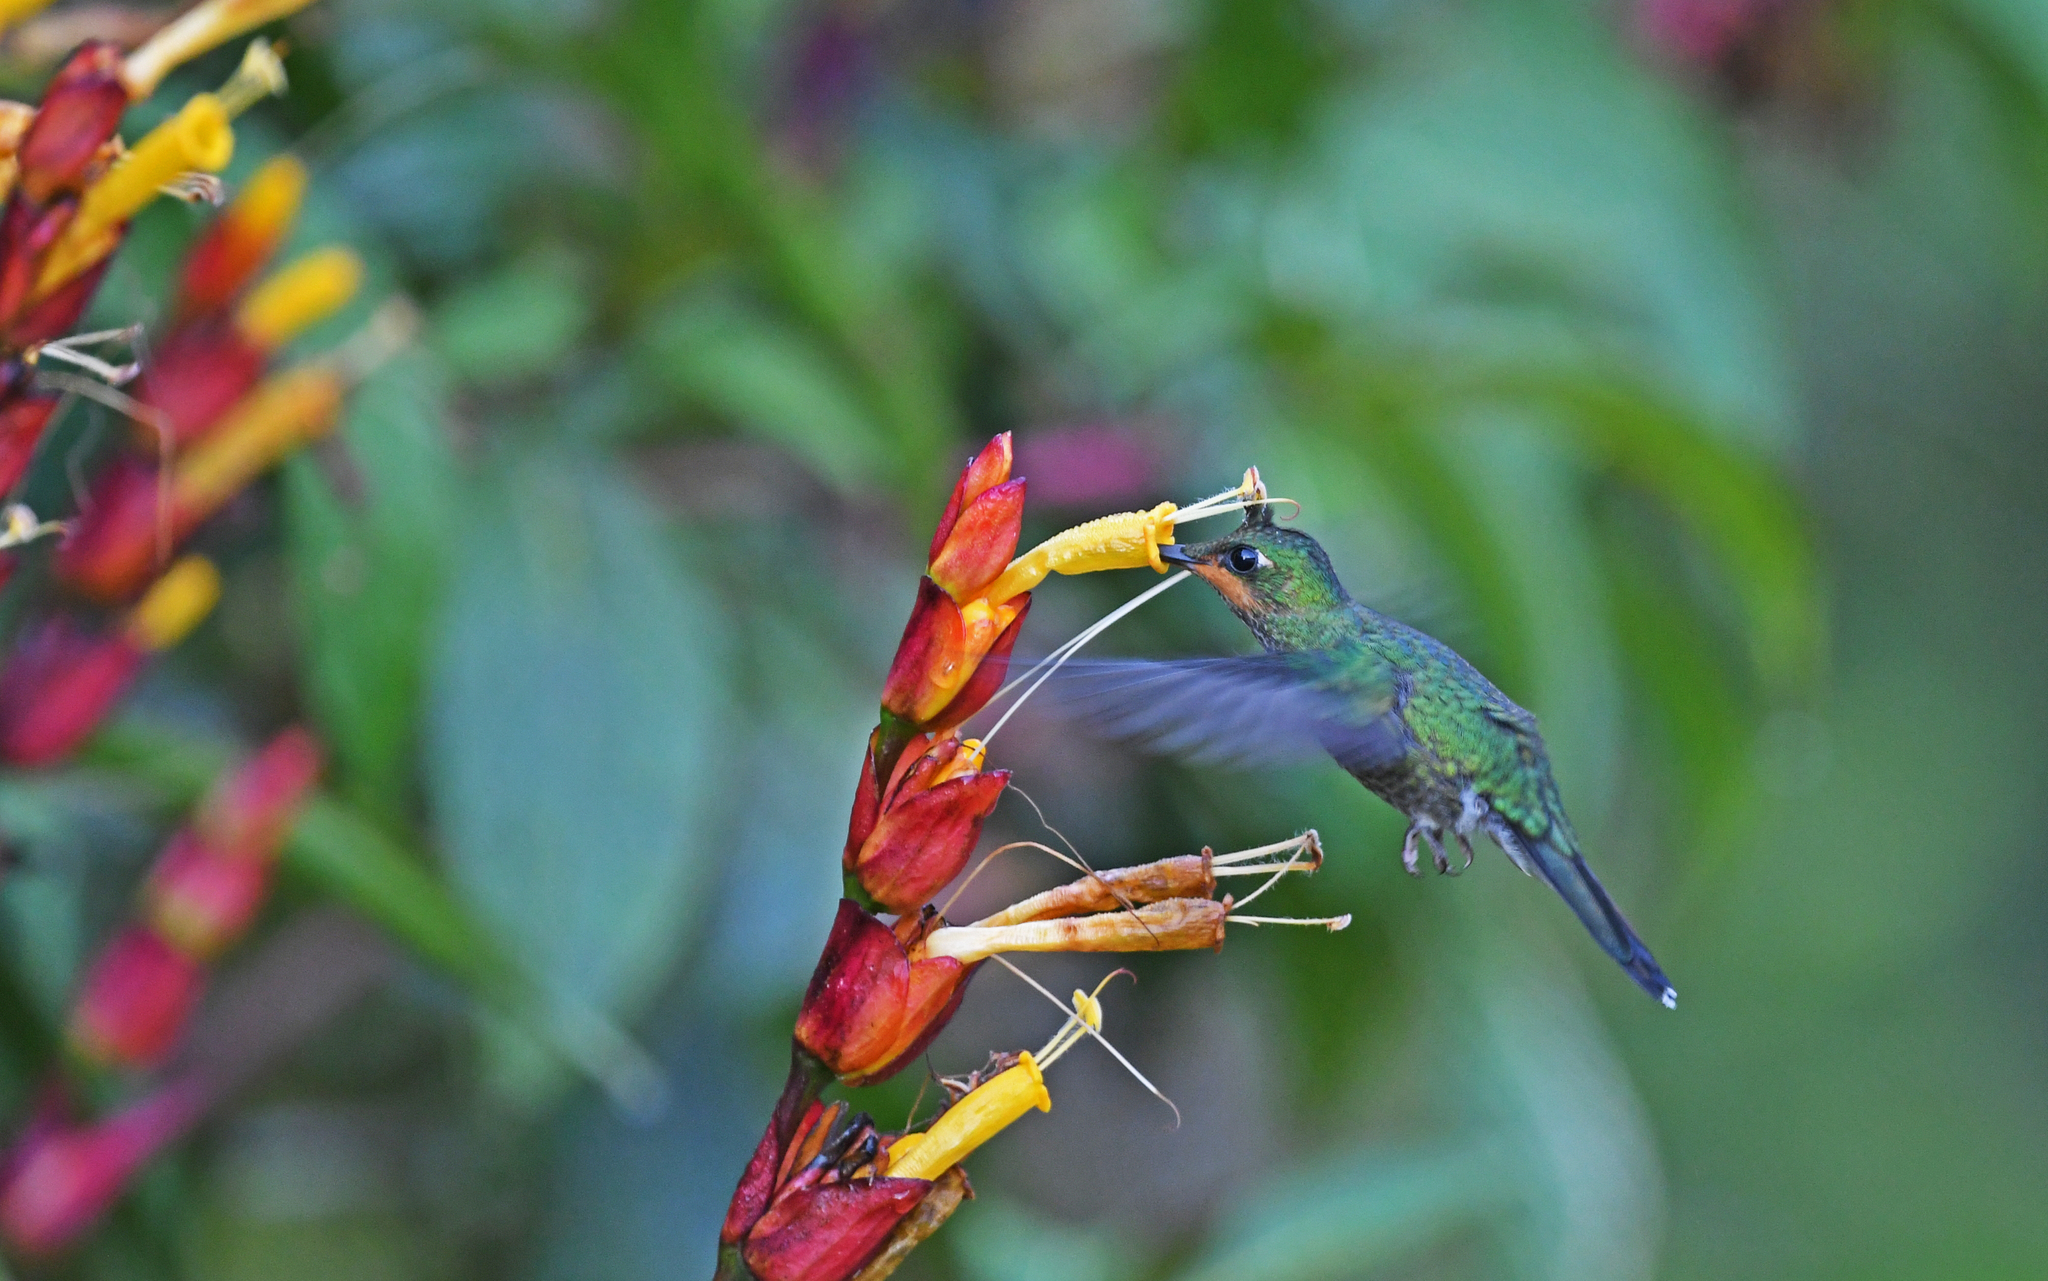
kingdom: Animalia
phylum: Chordata
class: Aves
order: Apodiformes
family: Trochilidae
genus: Heliodoxa
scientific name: Heliodoxa jacula
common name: Green-crowned brilliant
